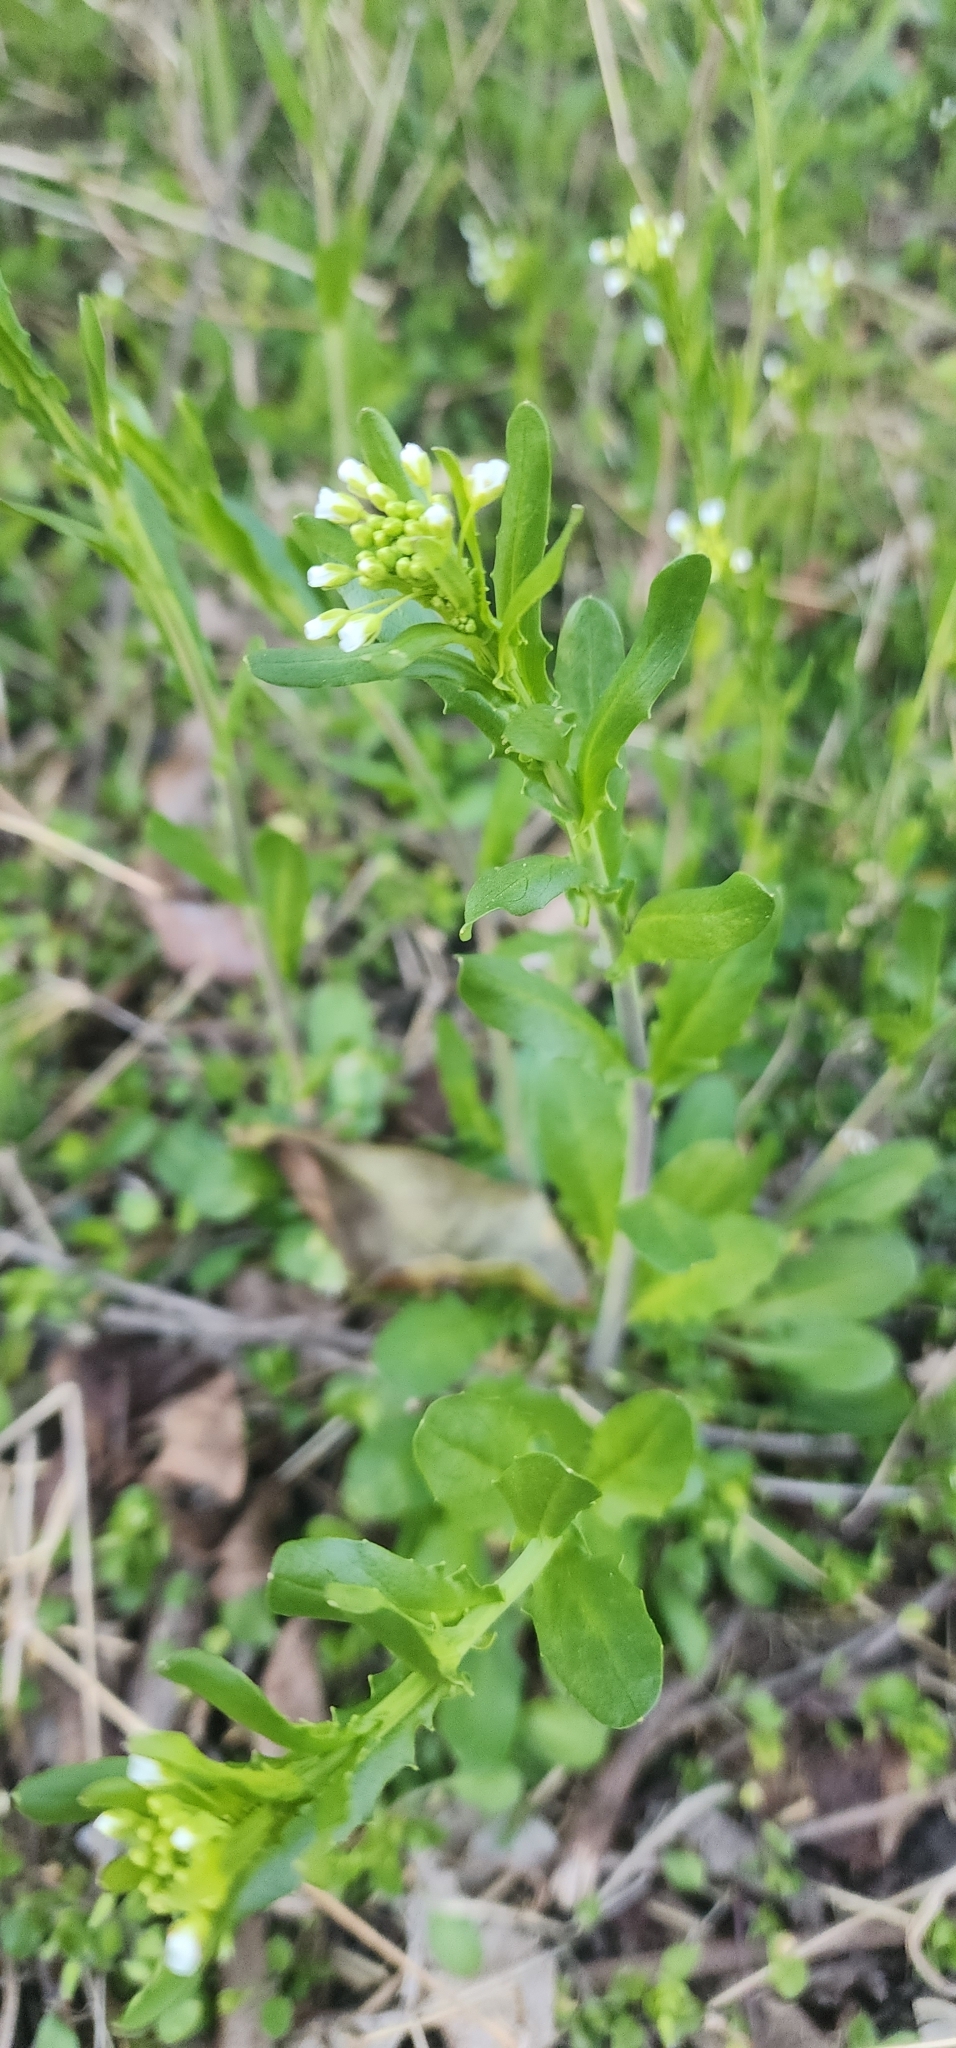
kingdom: Plantae
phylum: Tracheophyta
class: Magnoliopsida
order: Brassicales
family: Brassicaceae
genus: Mummenhoffia
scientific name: Mummenhoffia alliacea
